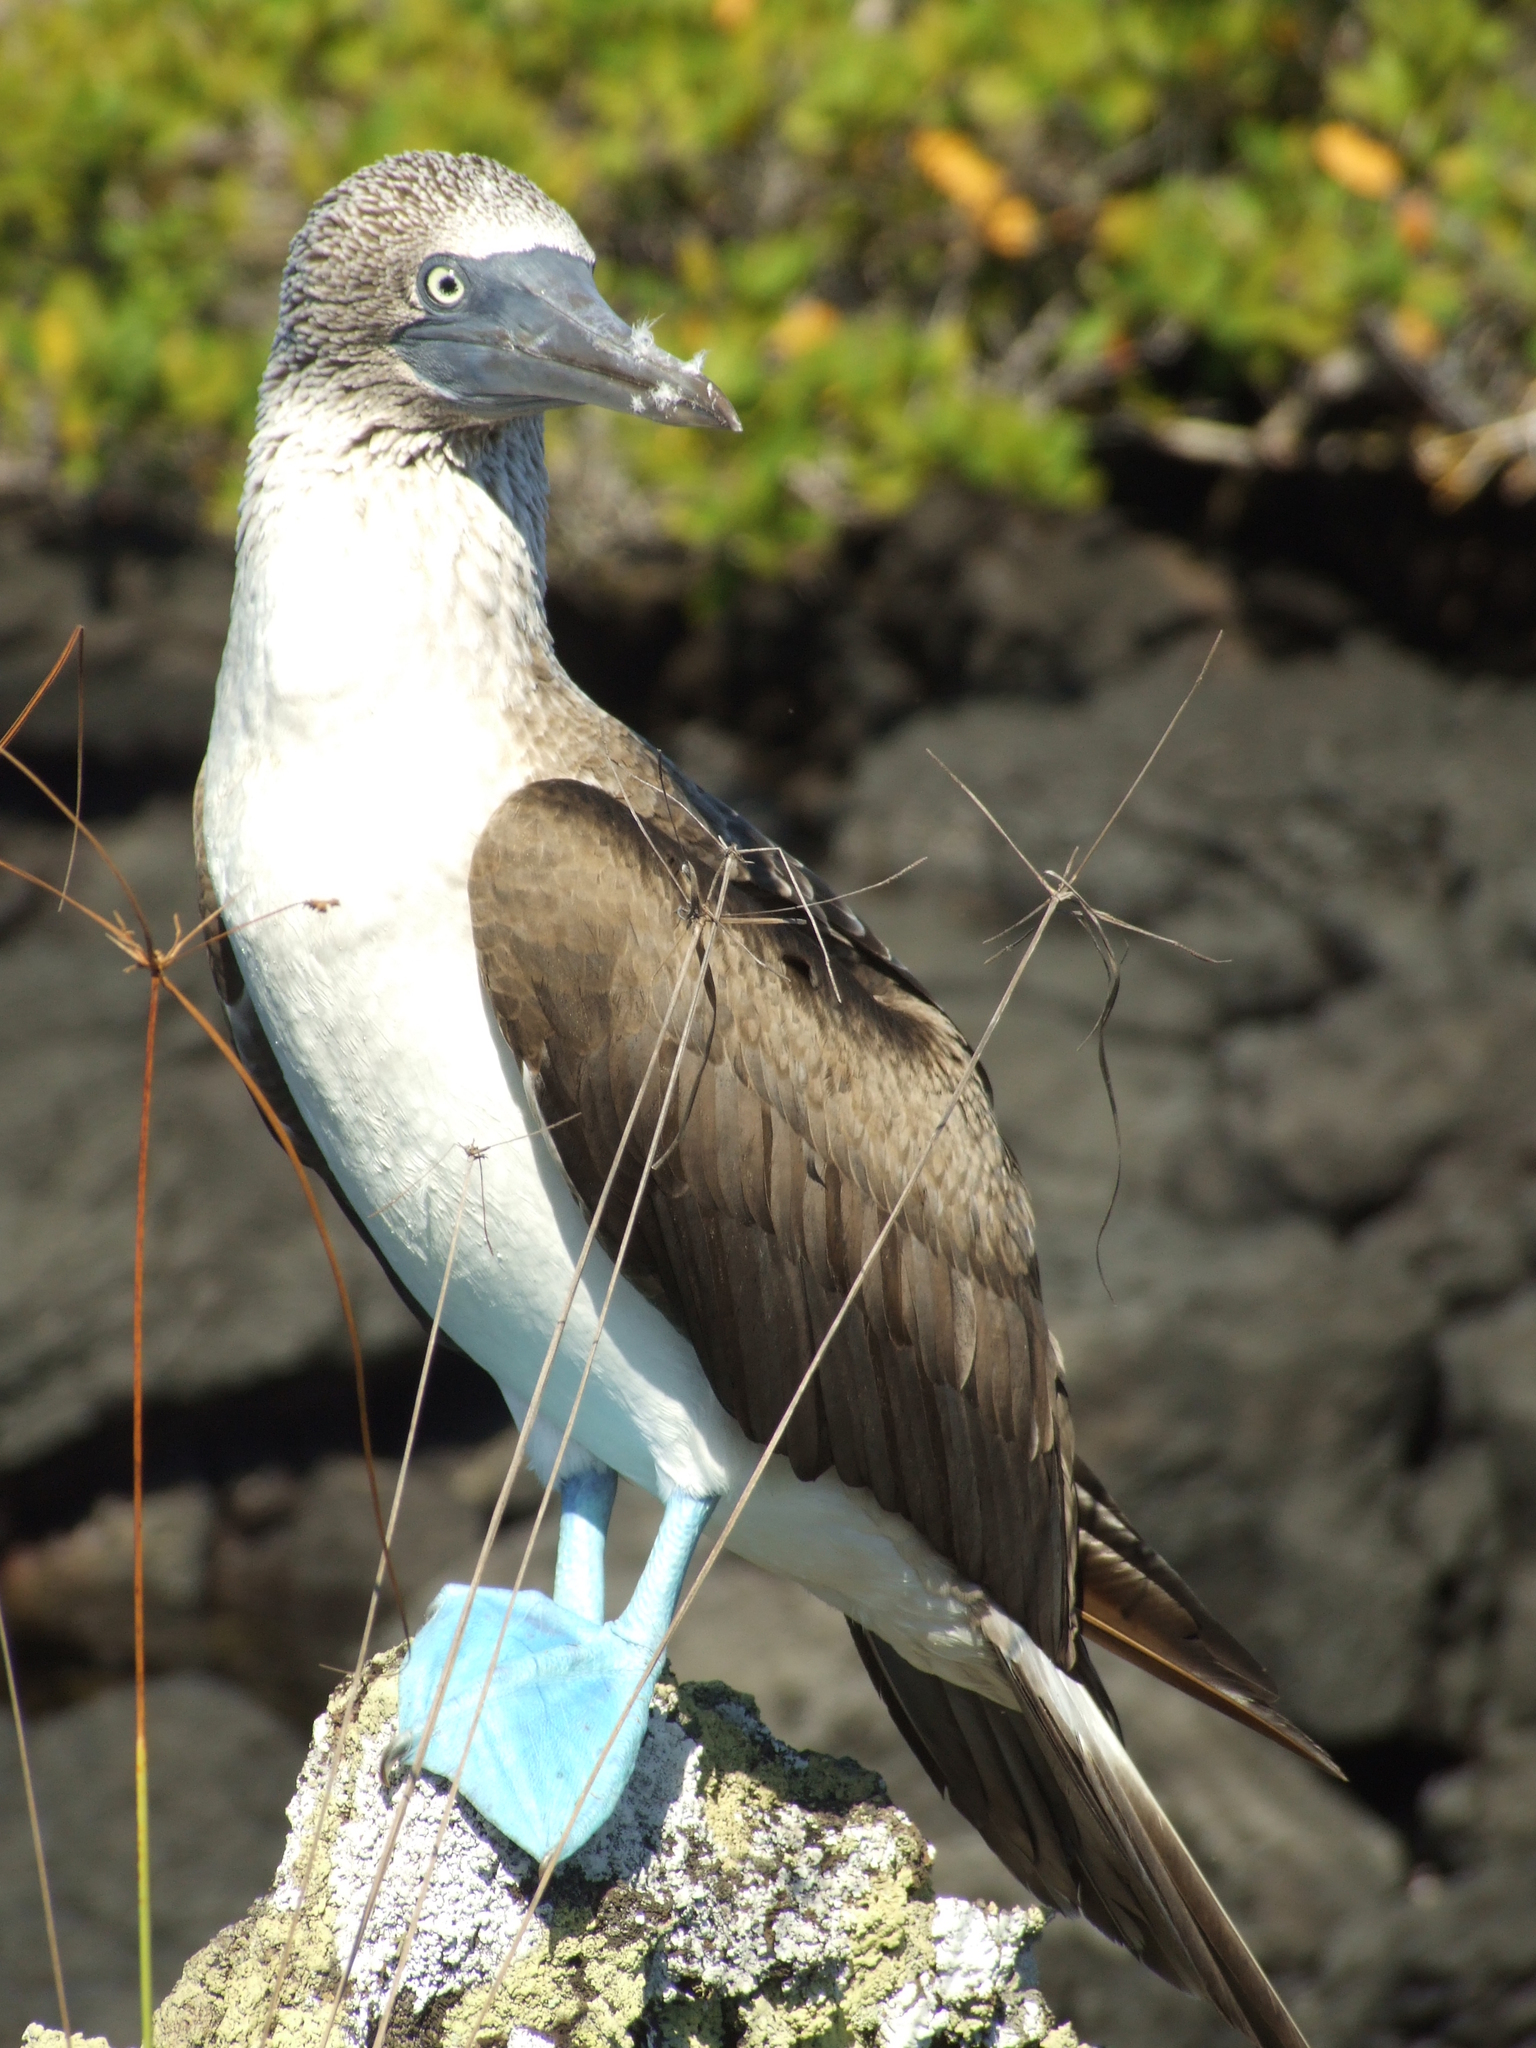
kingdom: Animalia
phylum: Chordata
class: Aves
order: Suliformes
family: Sulidae
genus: Sula
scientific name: Sula nebouxii
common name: Blue-footed booby
